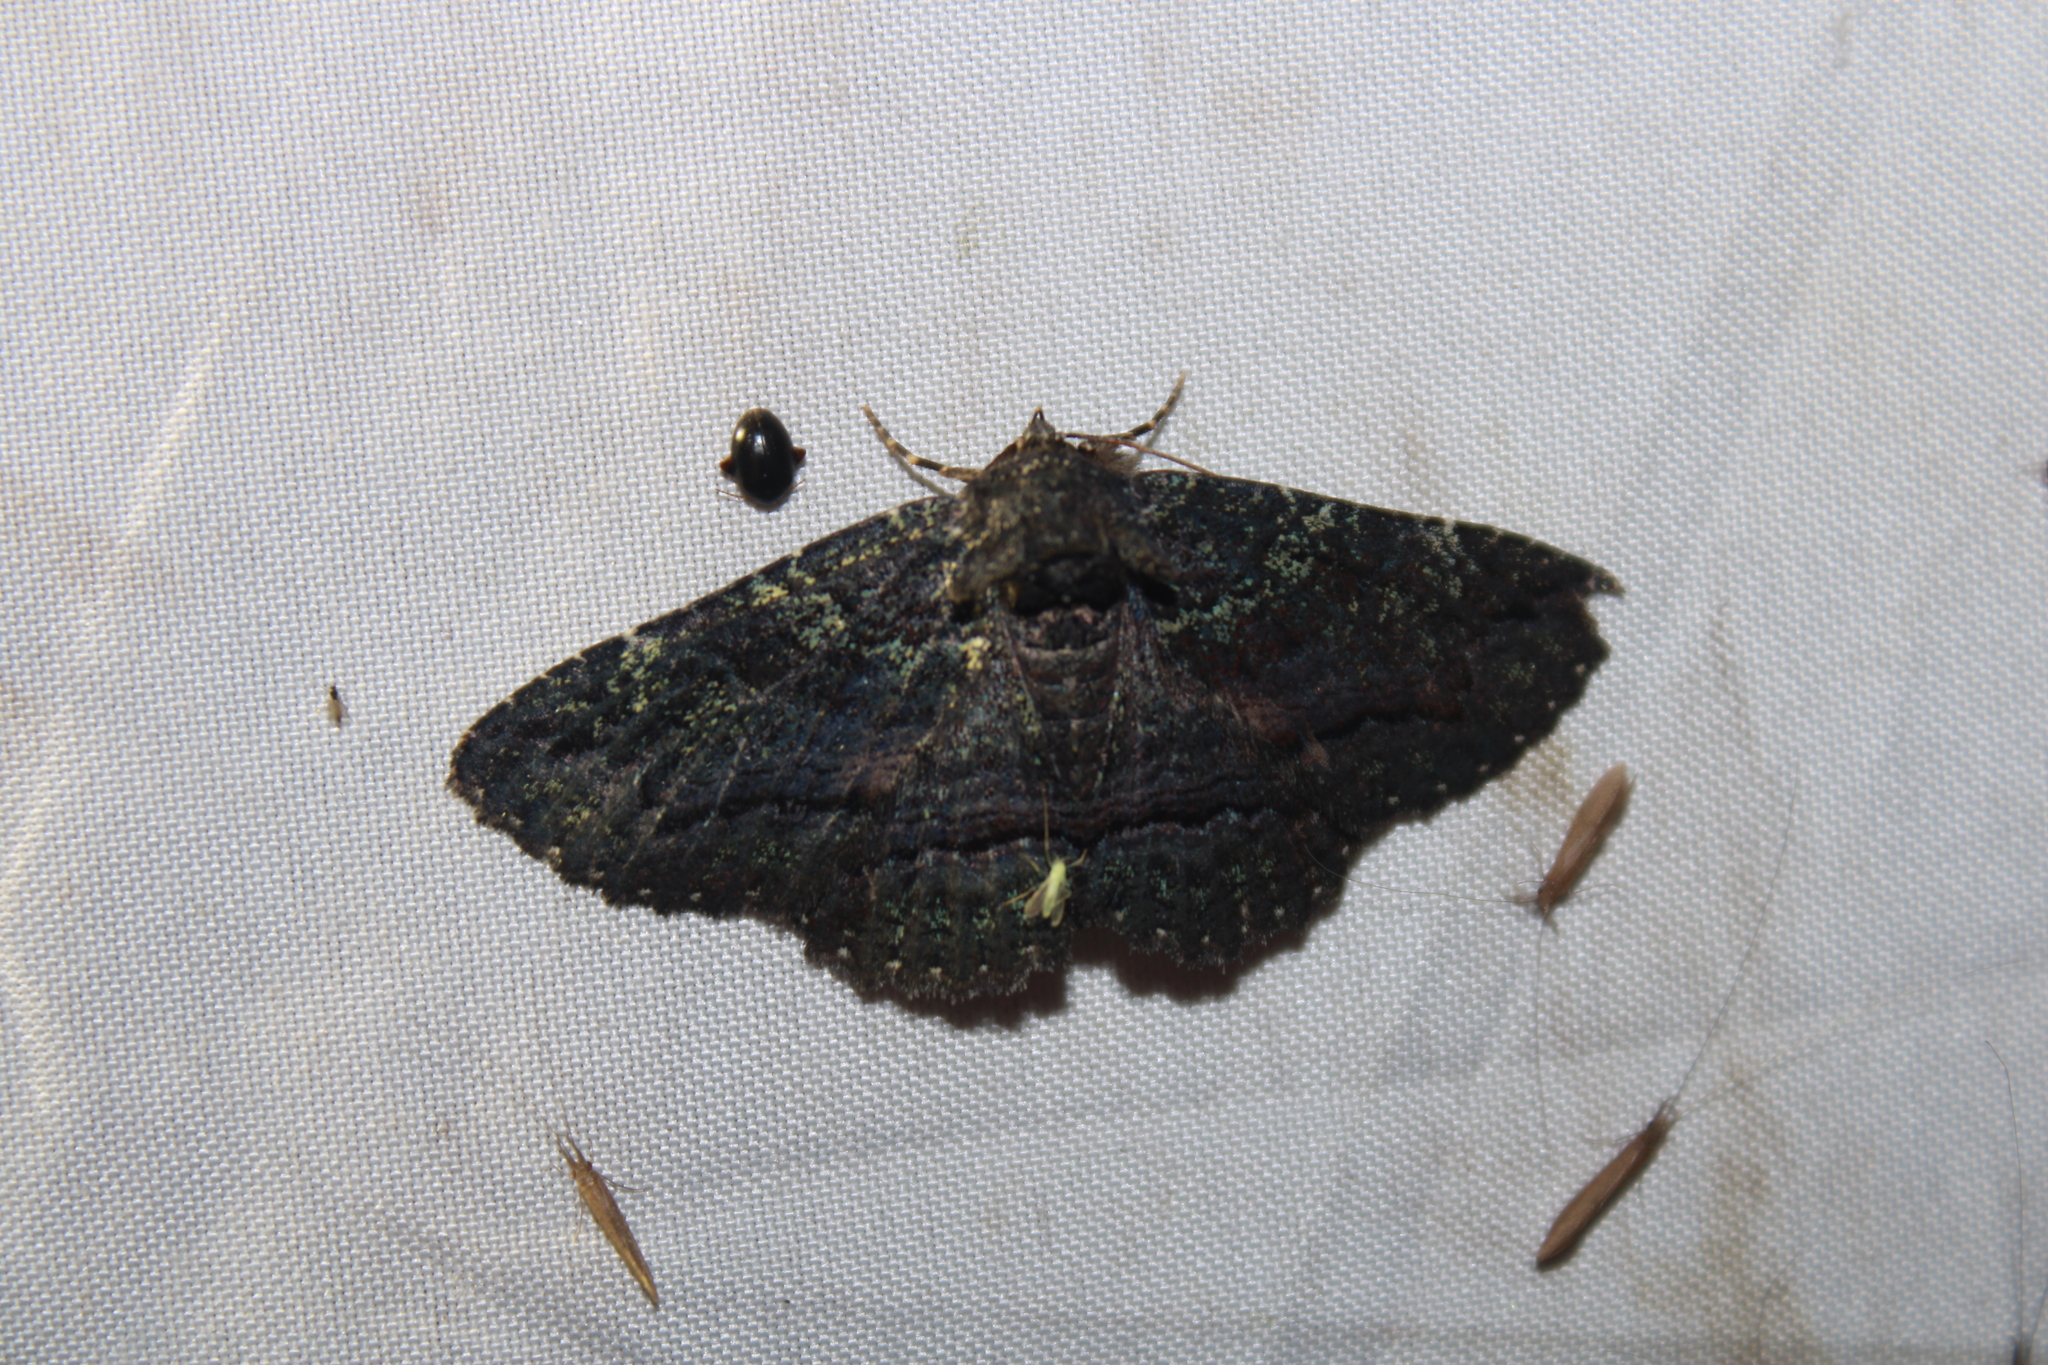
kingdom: Animalia
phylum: Arthropoda
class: Insecta
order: Lepidoptera
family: Erebidae
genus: Zale
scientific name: Zale aeruginosa
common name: Green-dusted zale moth
